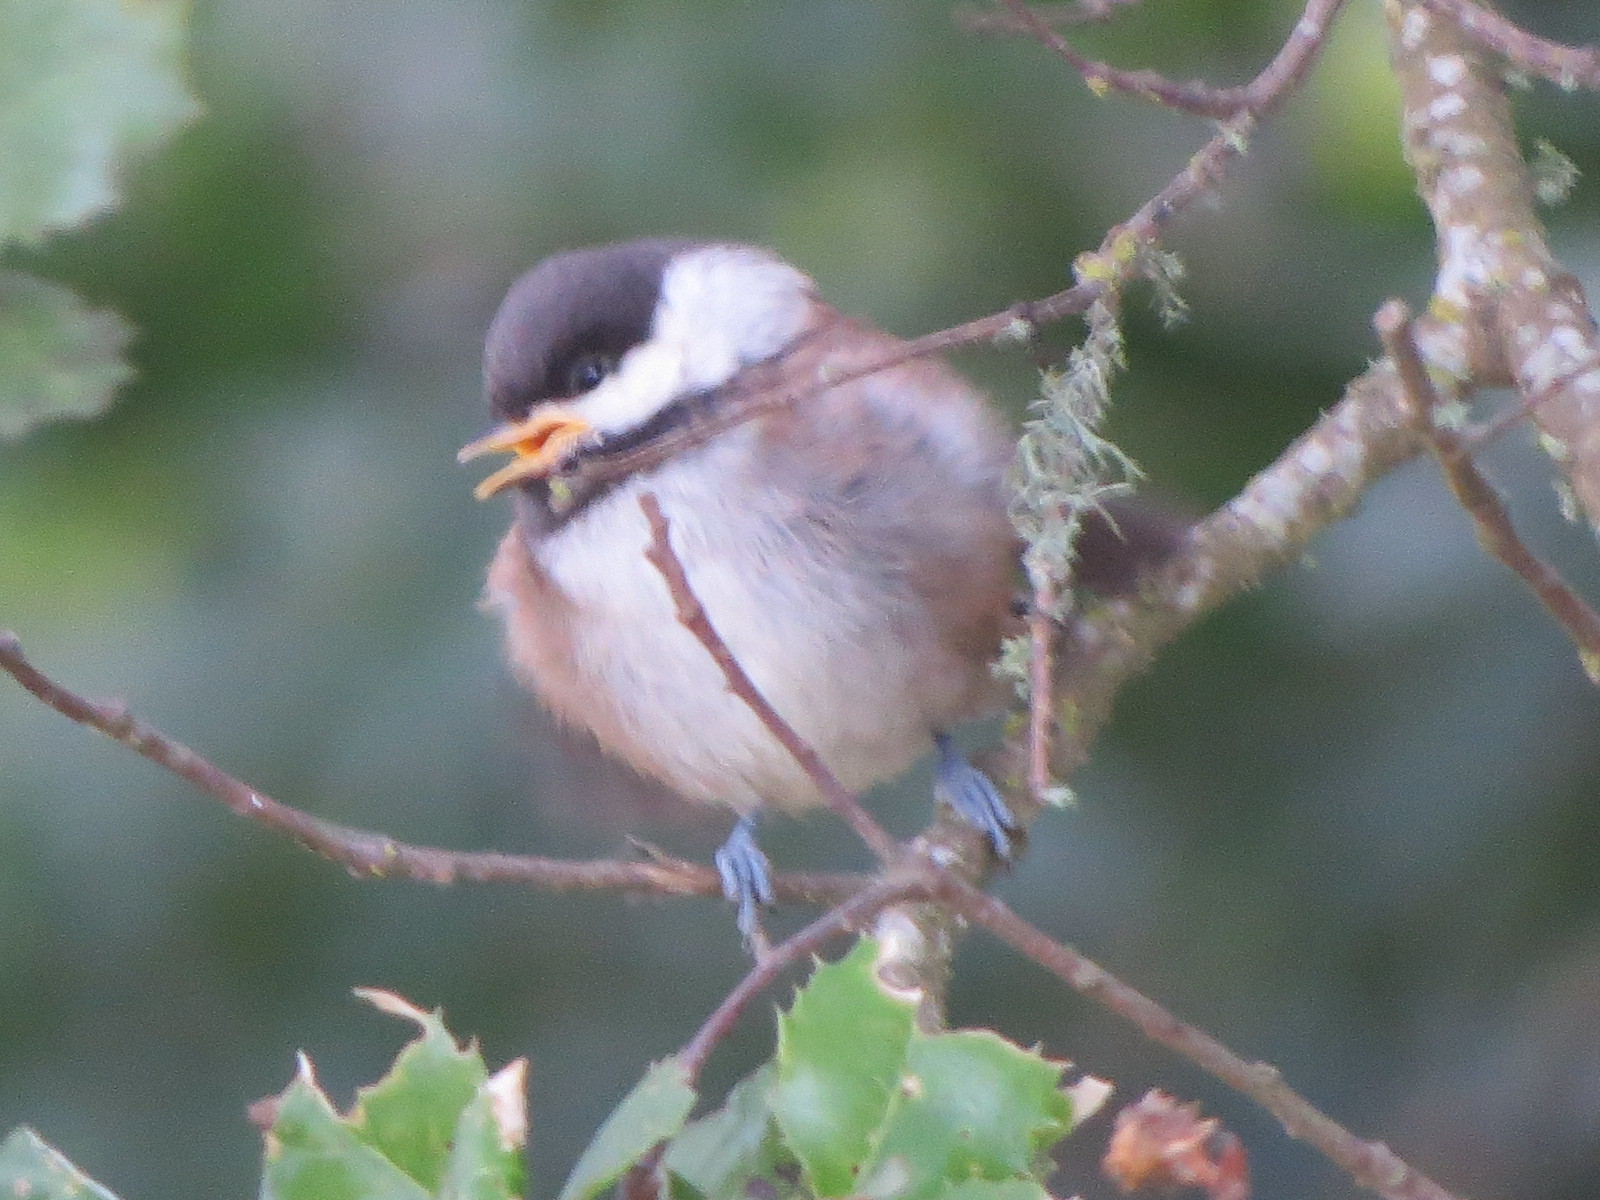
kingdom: Animalia
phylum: Chordata
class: Aves
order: Passeriformes
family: Paridae
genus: Poecile
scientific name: Poecile rufescens
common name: Chestnut-backed chickadee
